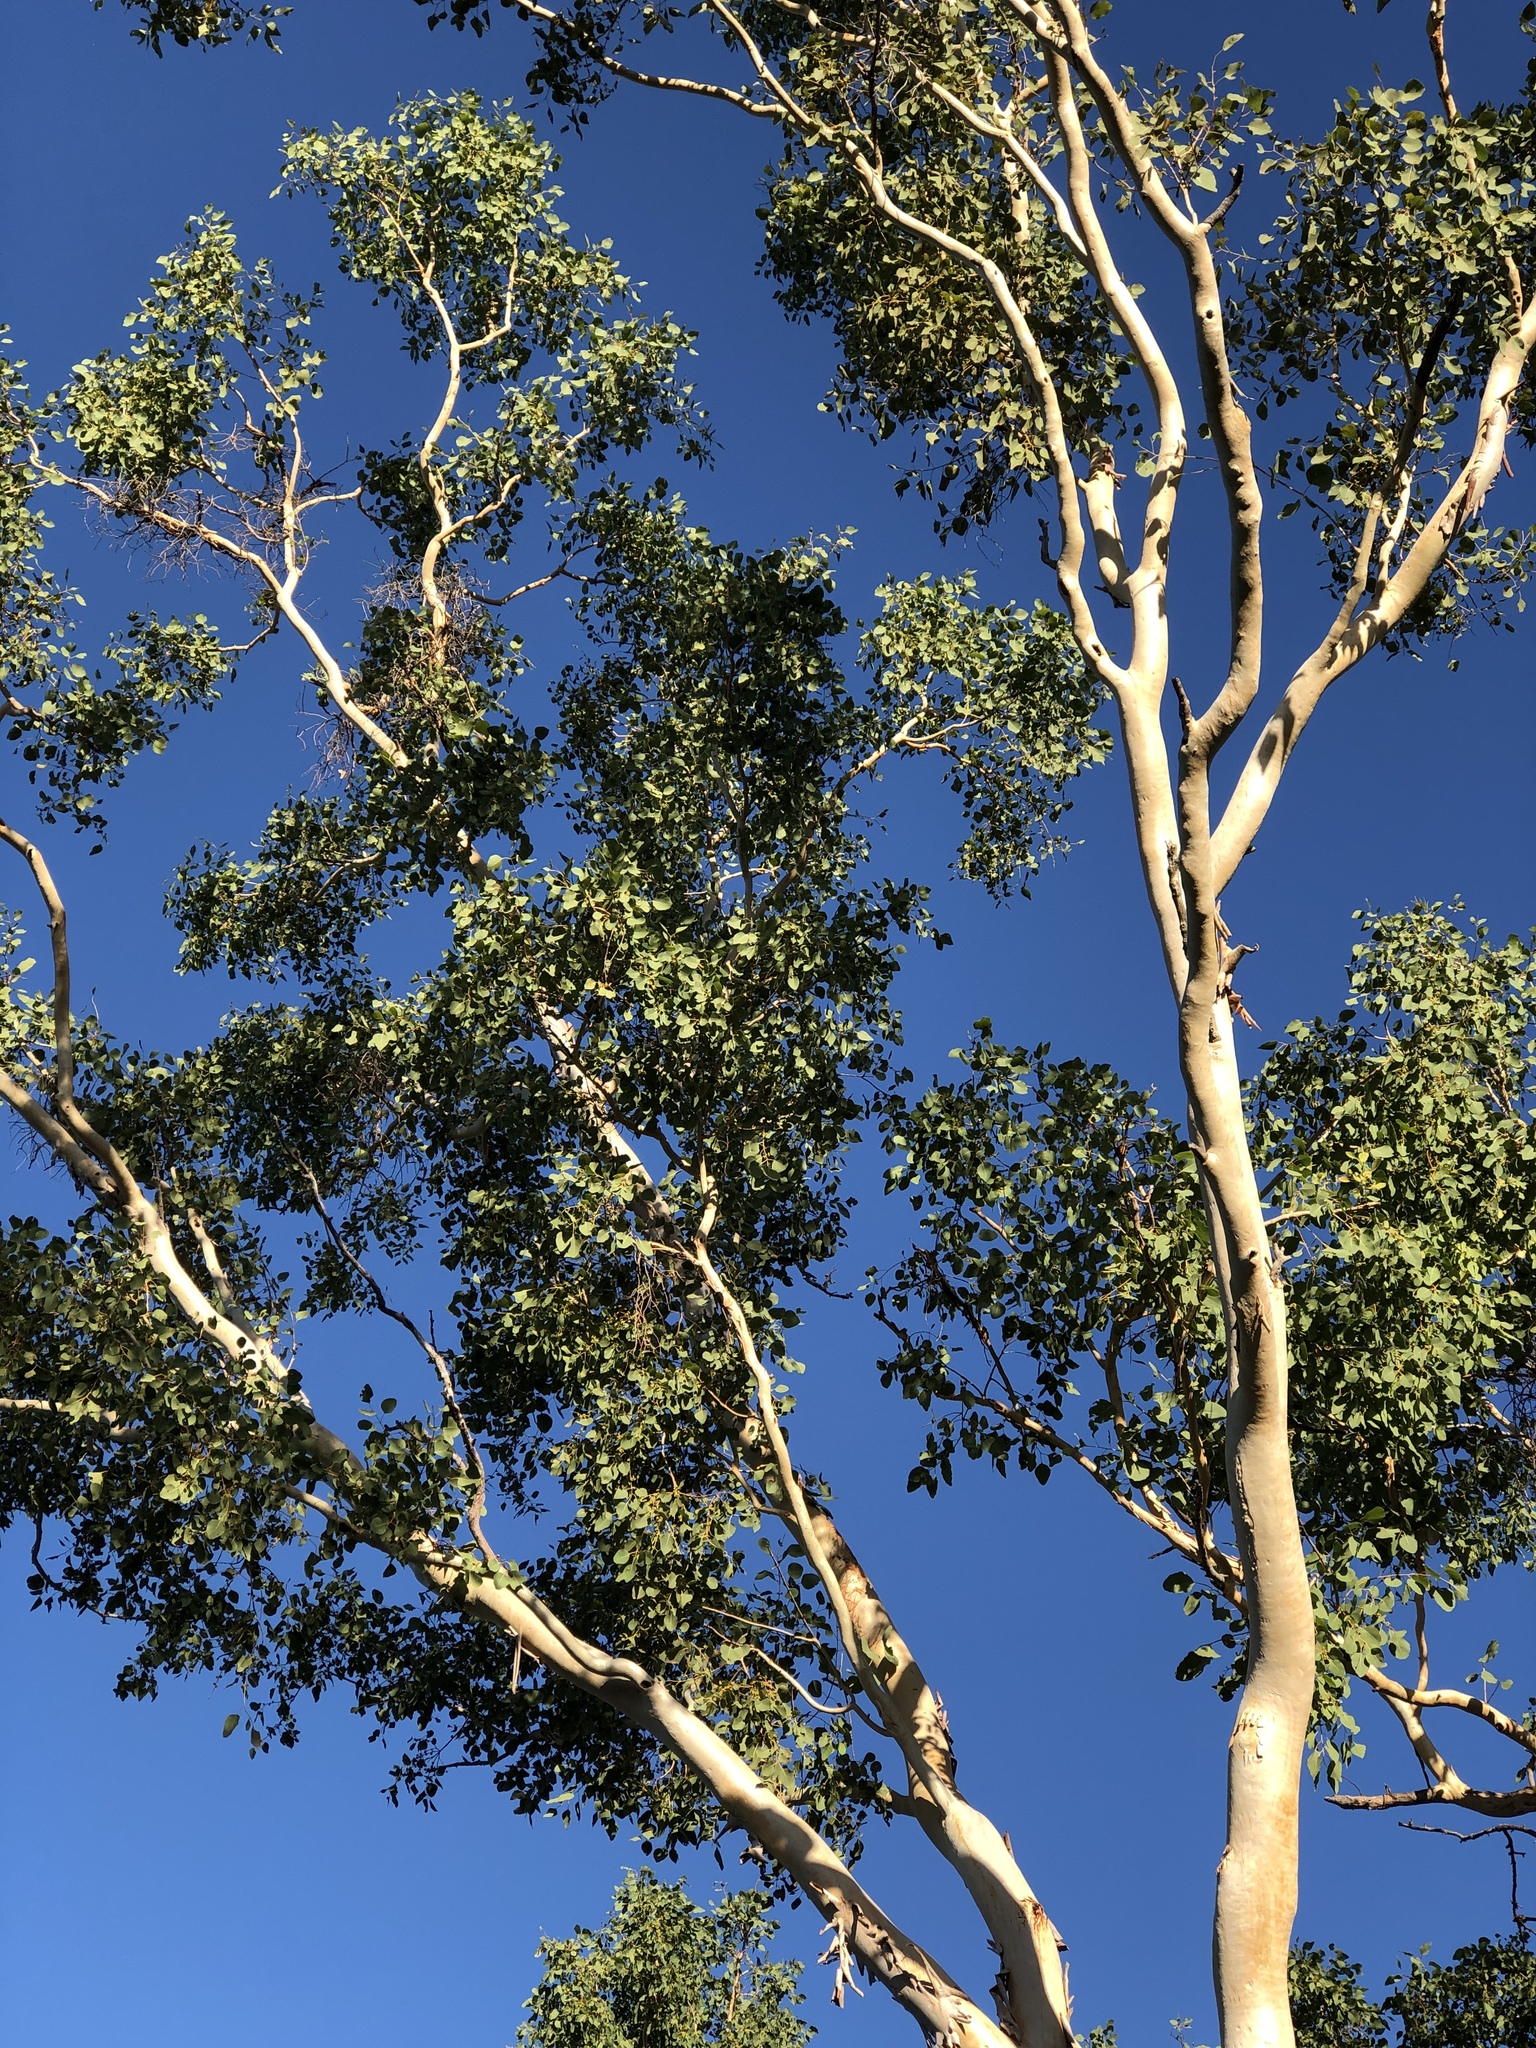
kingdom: Plantae
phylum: Tracheophyta
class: Magnoliopsida
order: Myrtales
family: Myrtaceae
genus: Eucalyptus
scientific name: Eucalyptus platyphylla
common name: Poplar-gum
